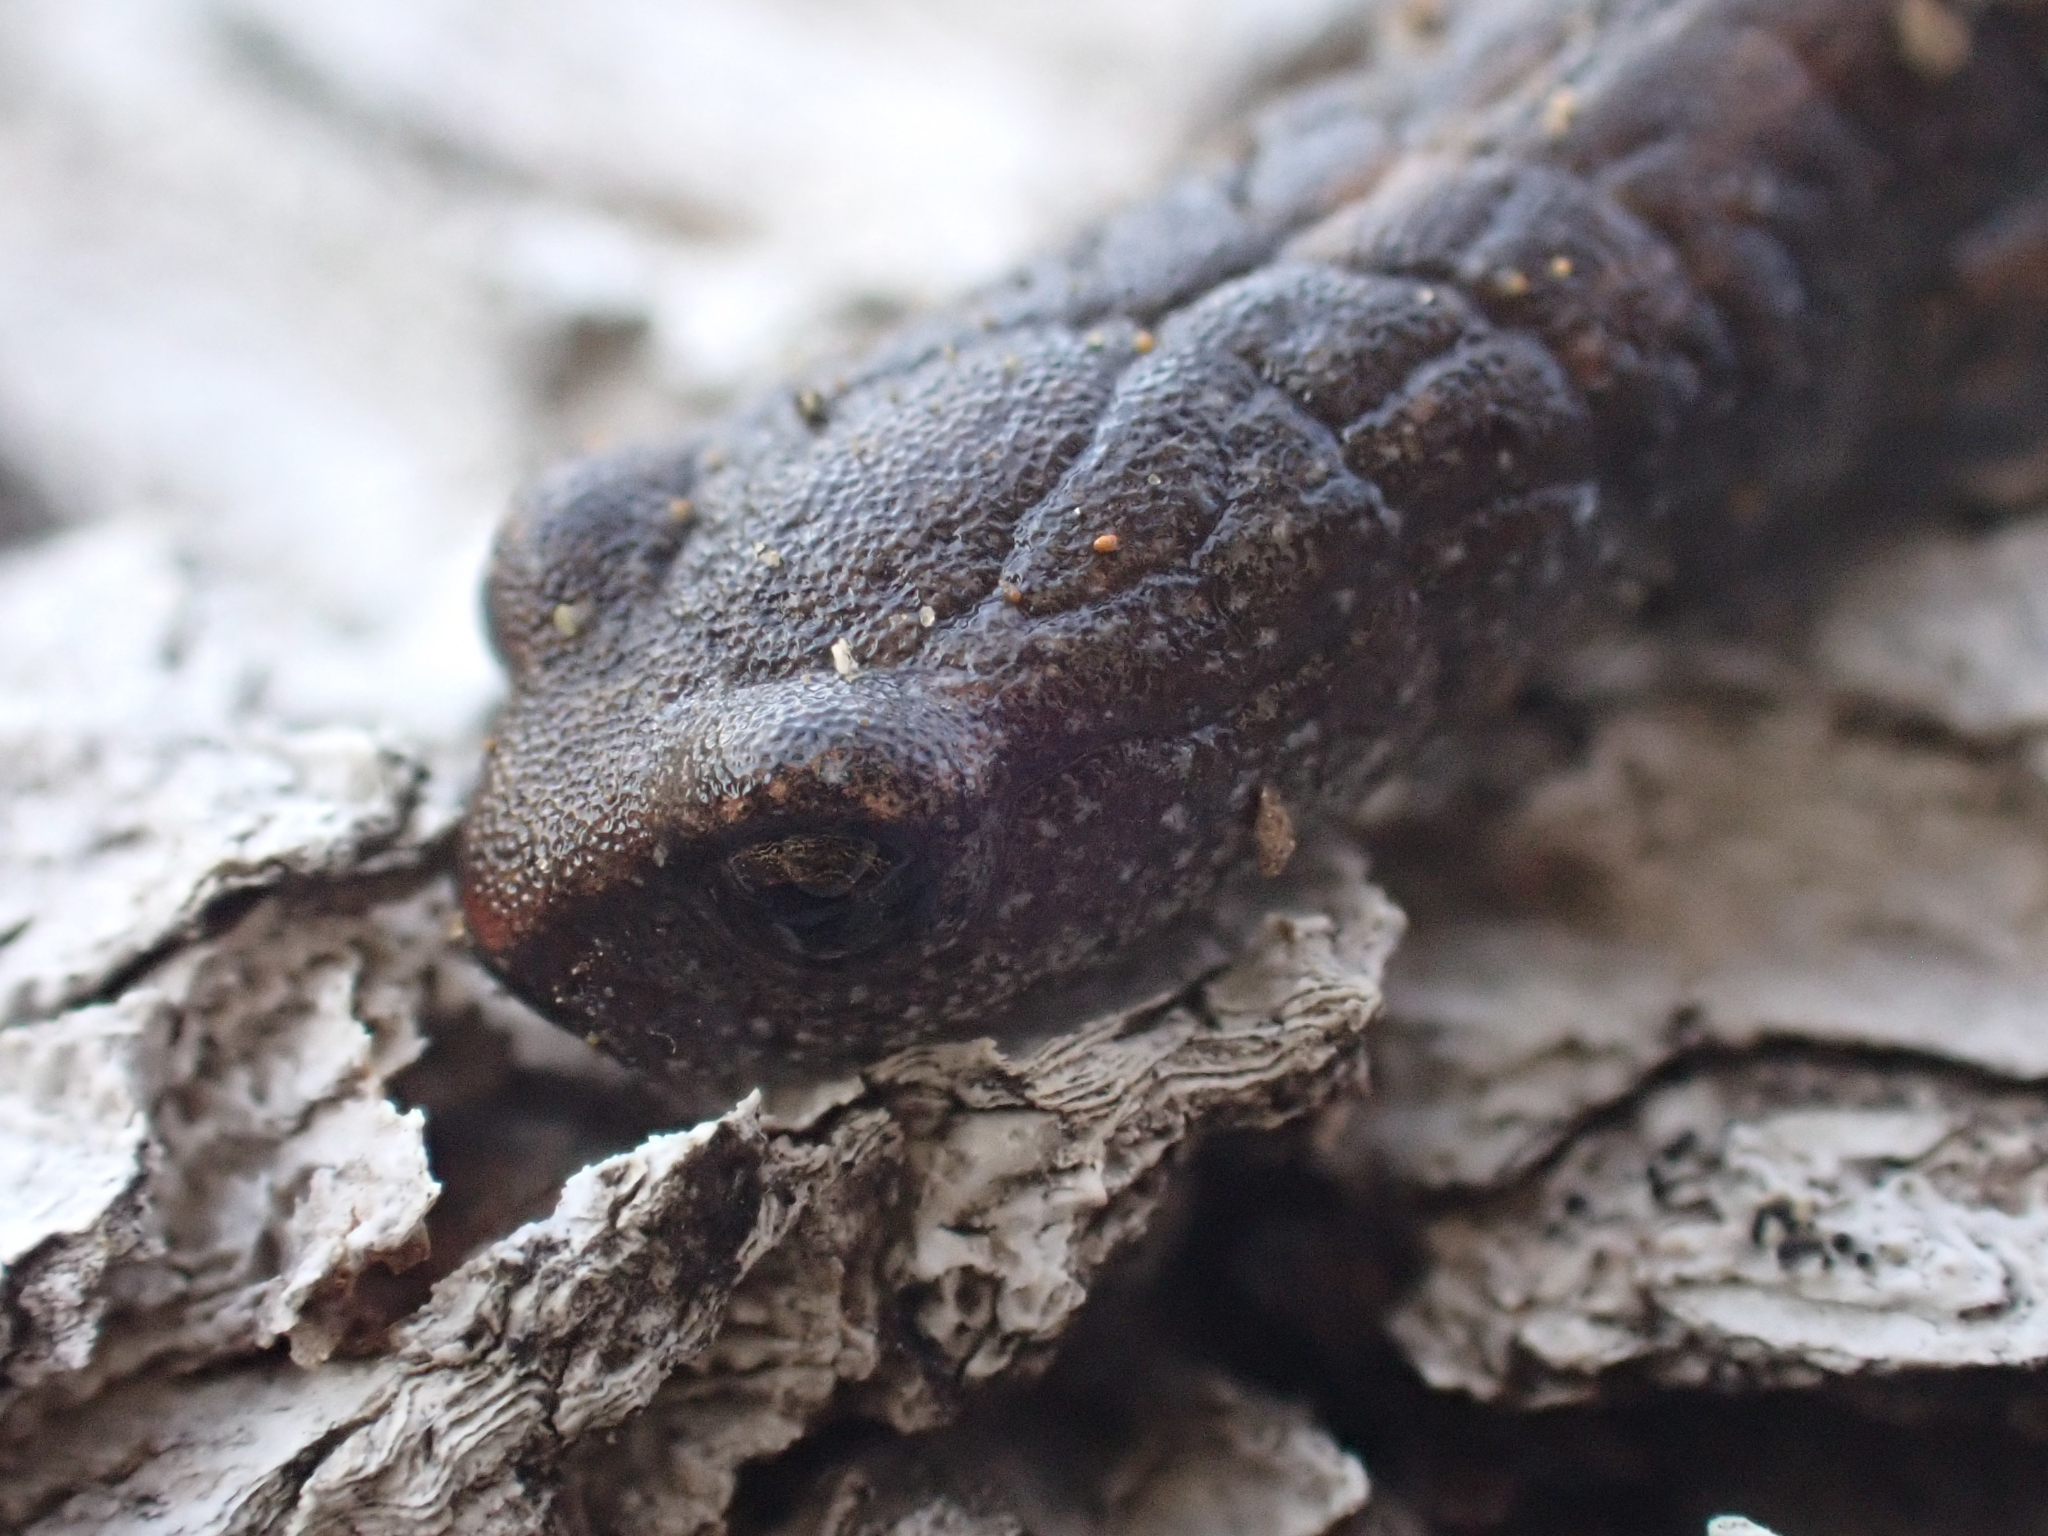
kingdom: Animalia
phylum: Chordata
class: Amphibia
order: Caudata
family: Plethodontidae
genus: Batrachoseps
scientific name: Batrachoseps gavilanensis
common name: Gabilan mountains slender salamander
